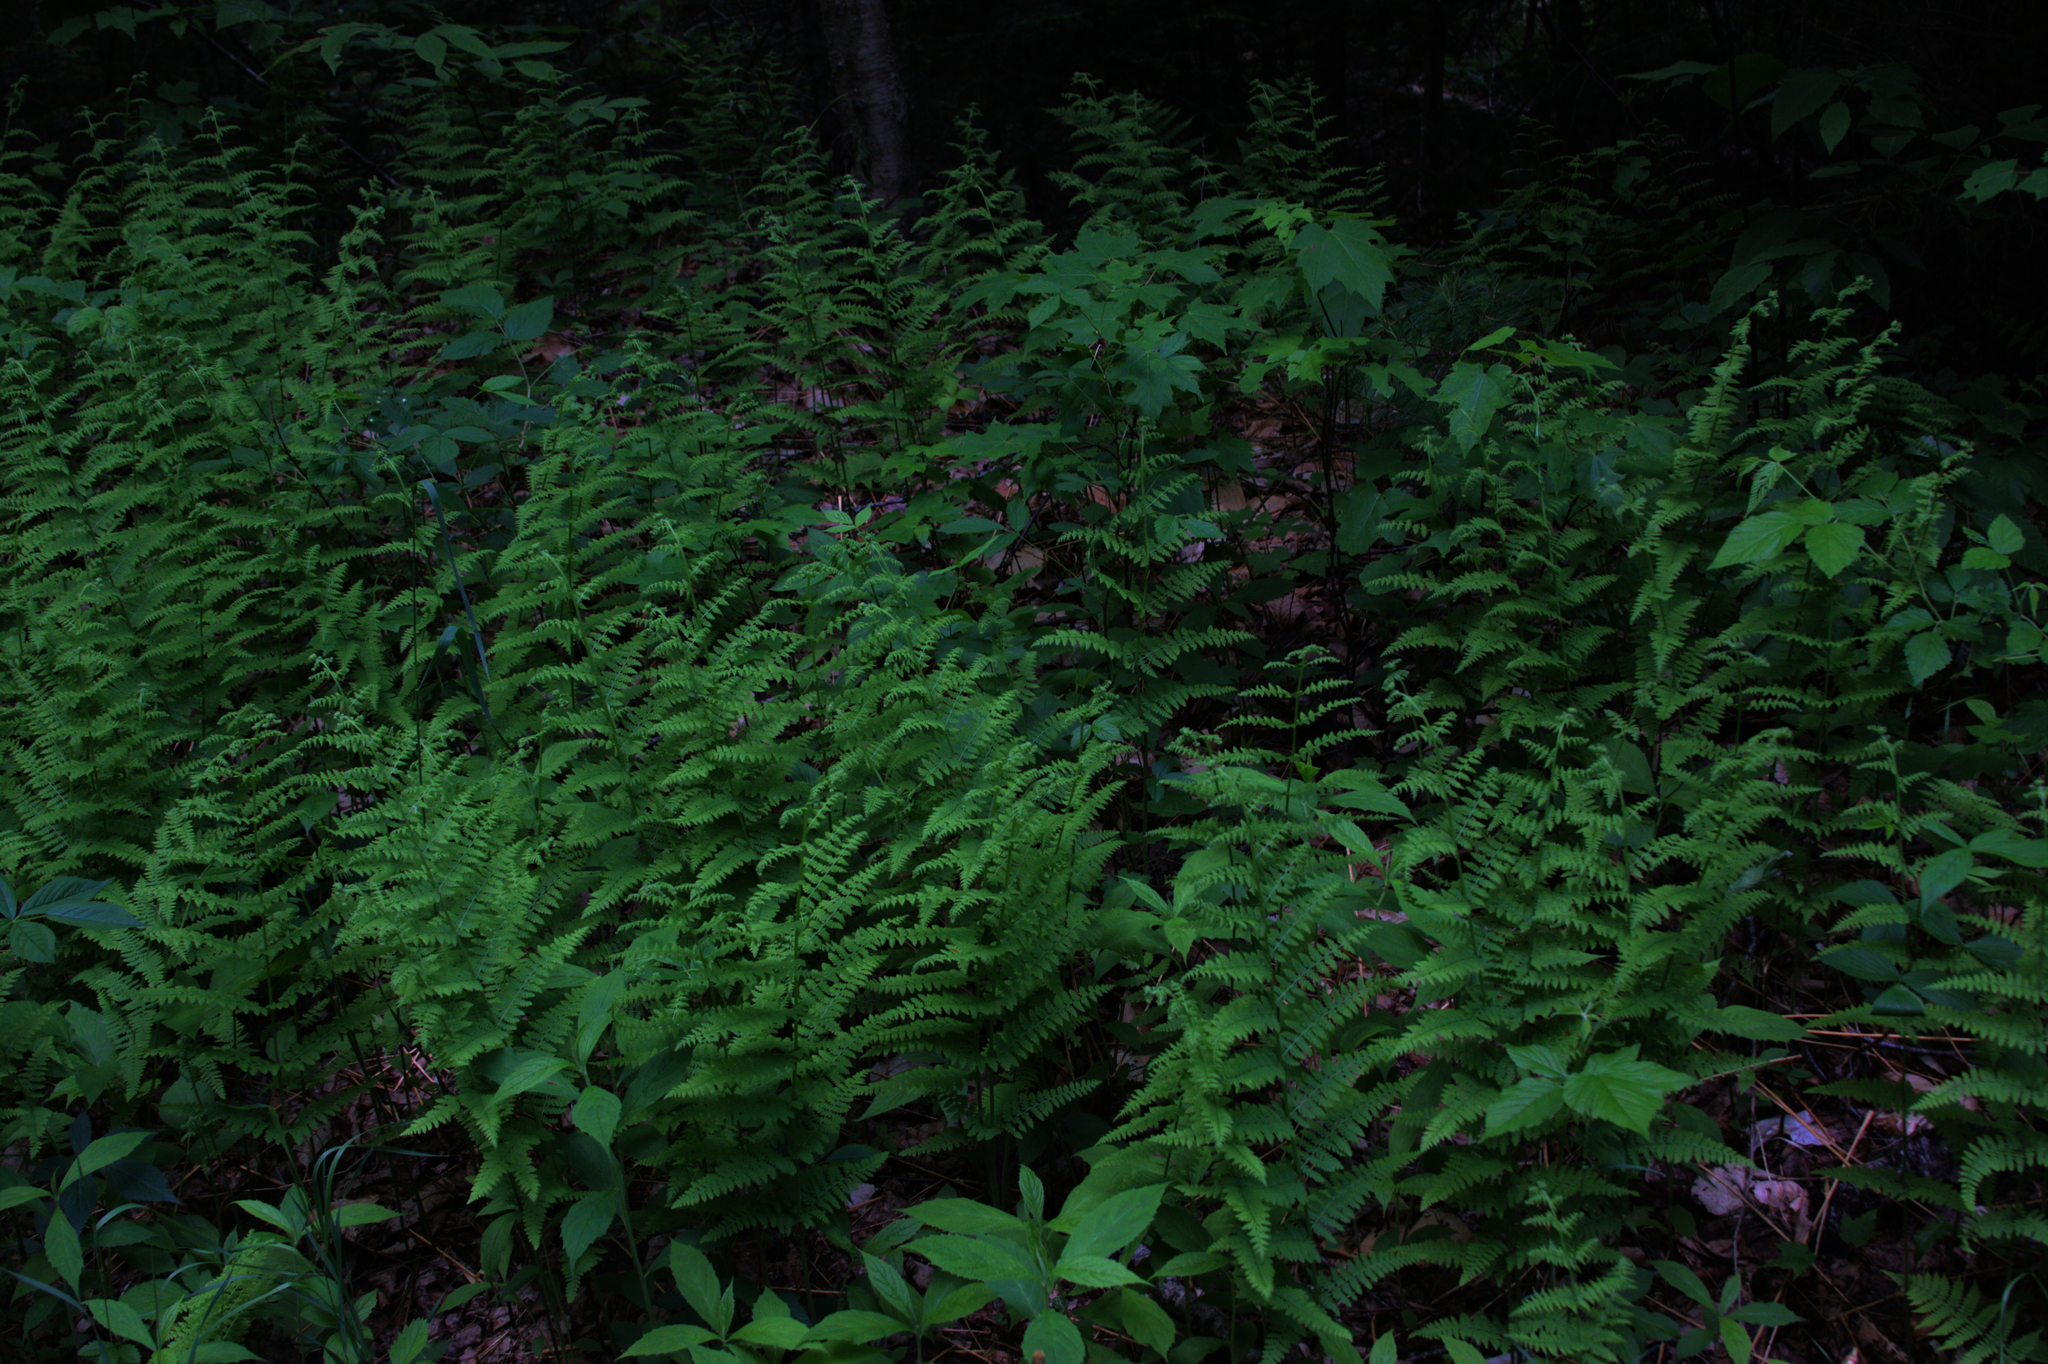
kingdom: Plantae
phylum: Tracheophyta
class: Polypodiopsida
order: Polypodiales
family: Dennstaedtiaceae
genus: Sitobolium
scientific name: Sitobolium punctilobum
